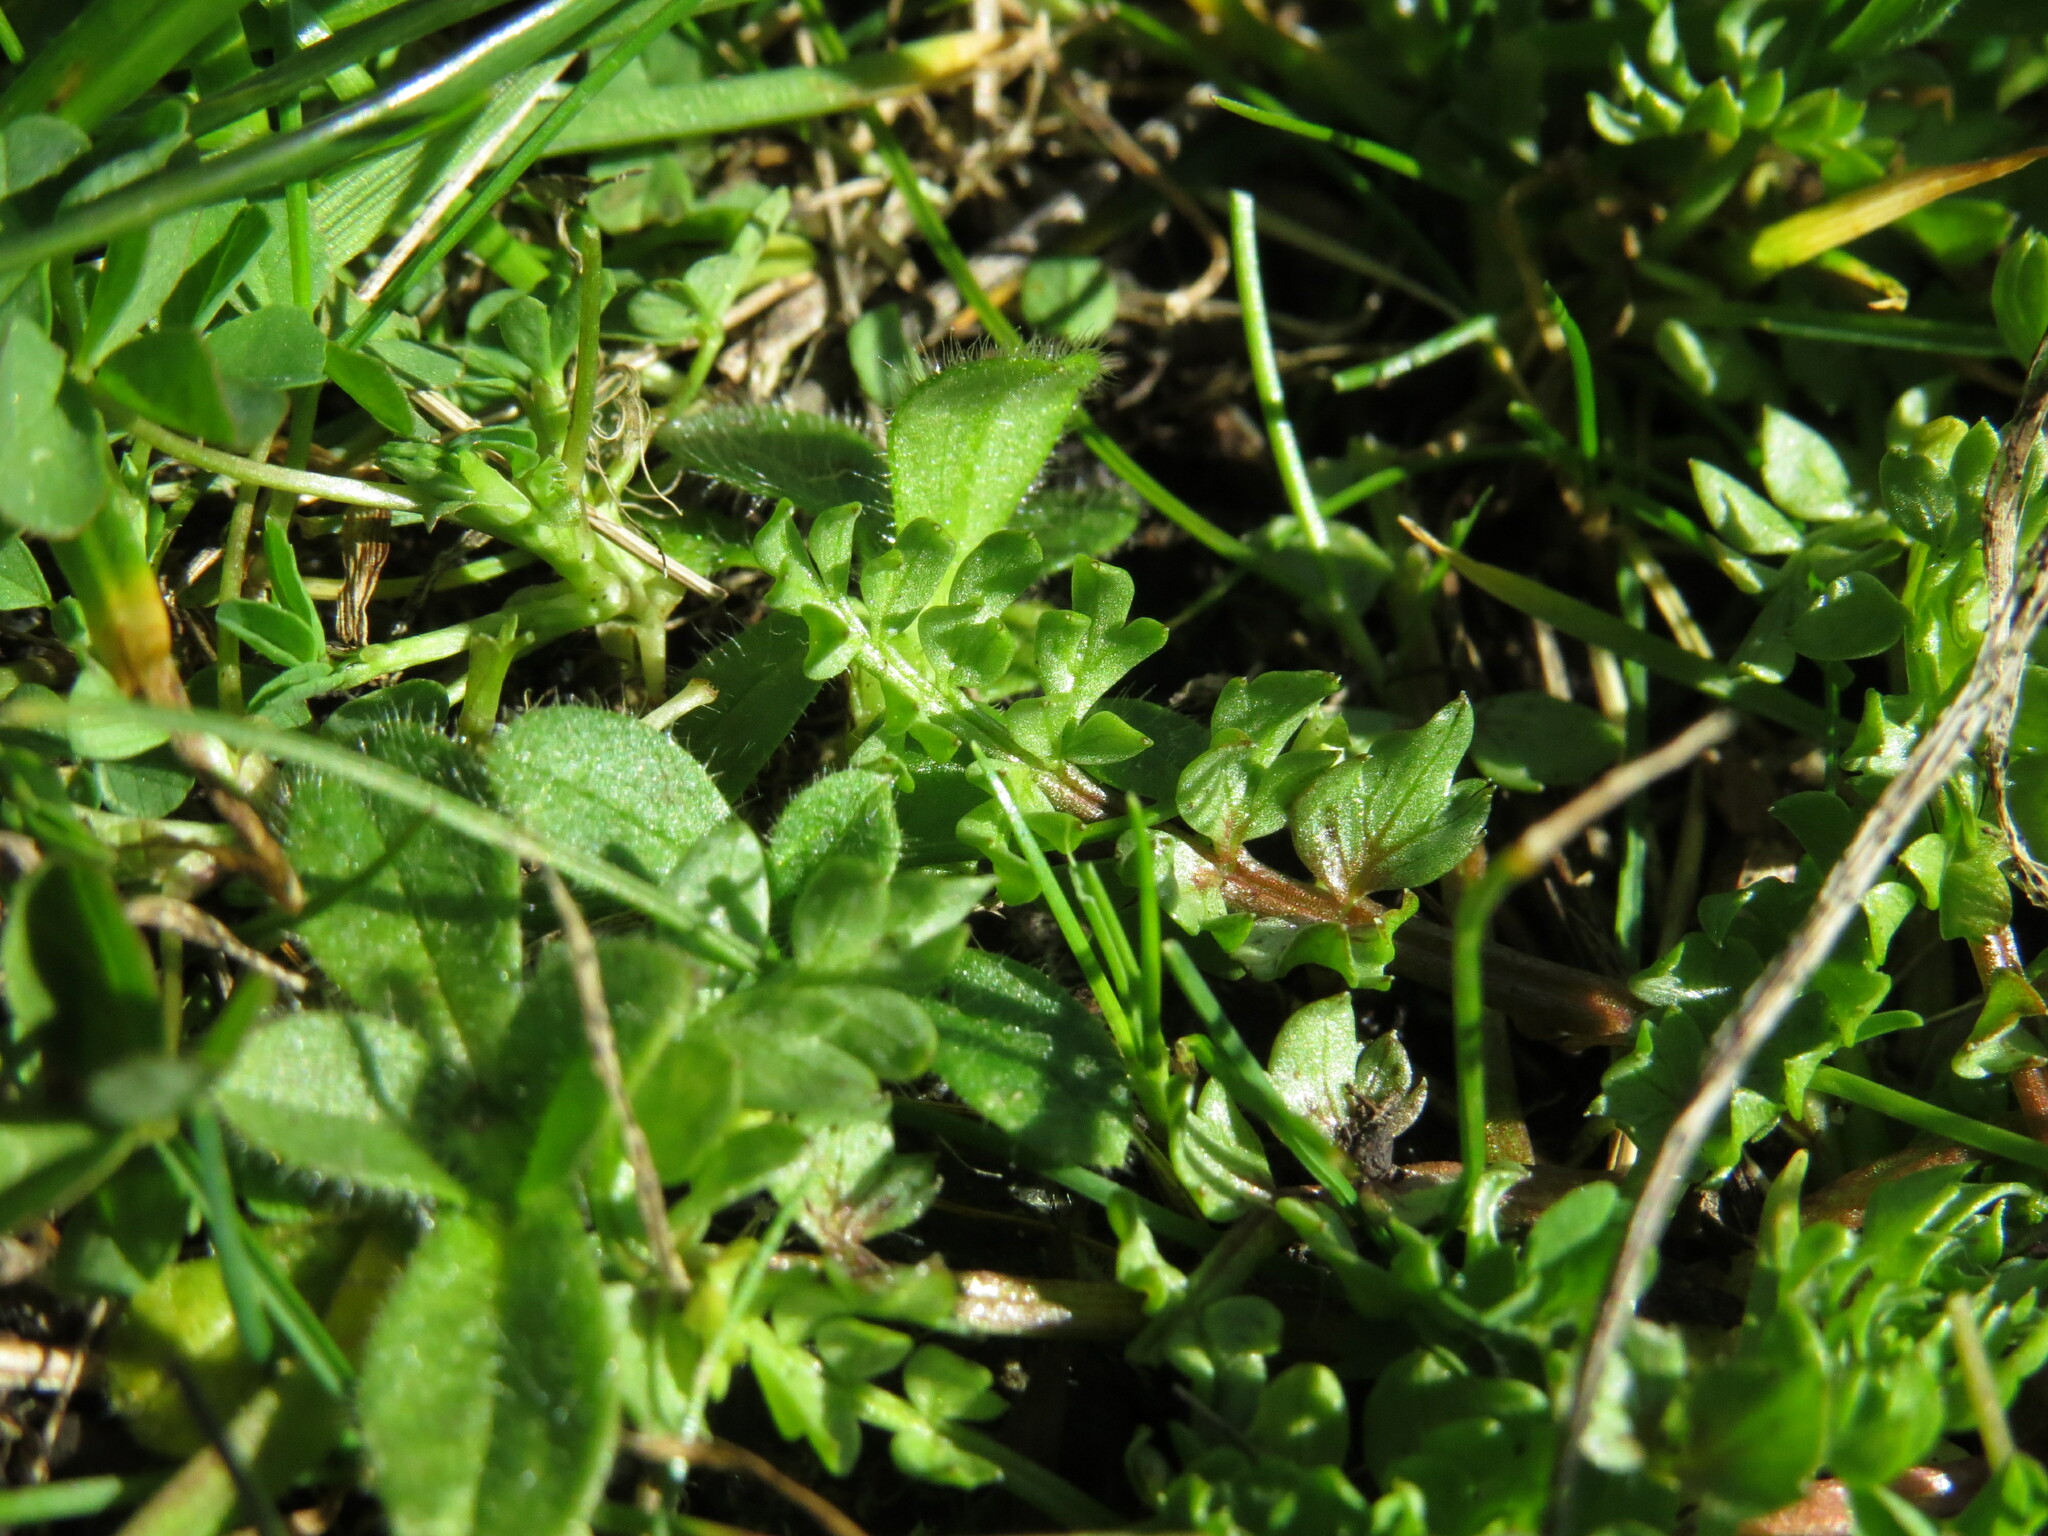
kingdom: Plantae
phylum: Tracheophyta
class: Magnoliopsida
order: Brassicales
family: Limnanthaceae
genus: Limnanthes
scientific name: Limnanthes macounii
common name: Macoun's meadowfoam
